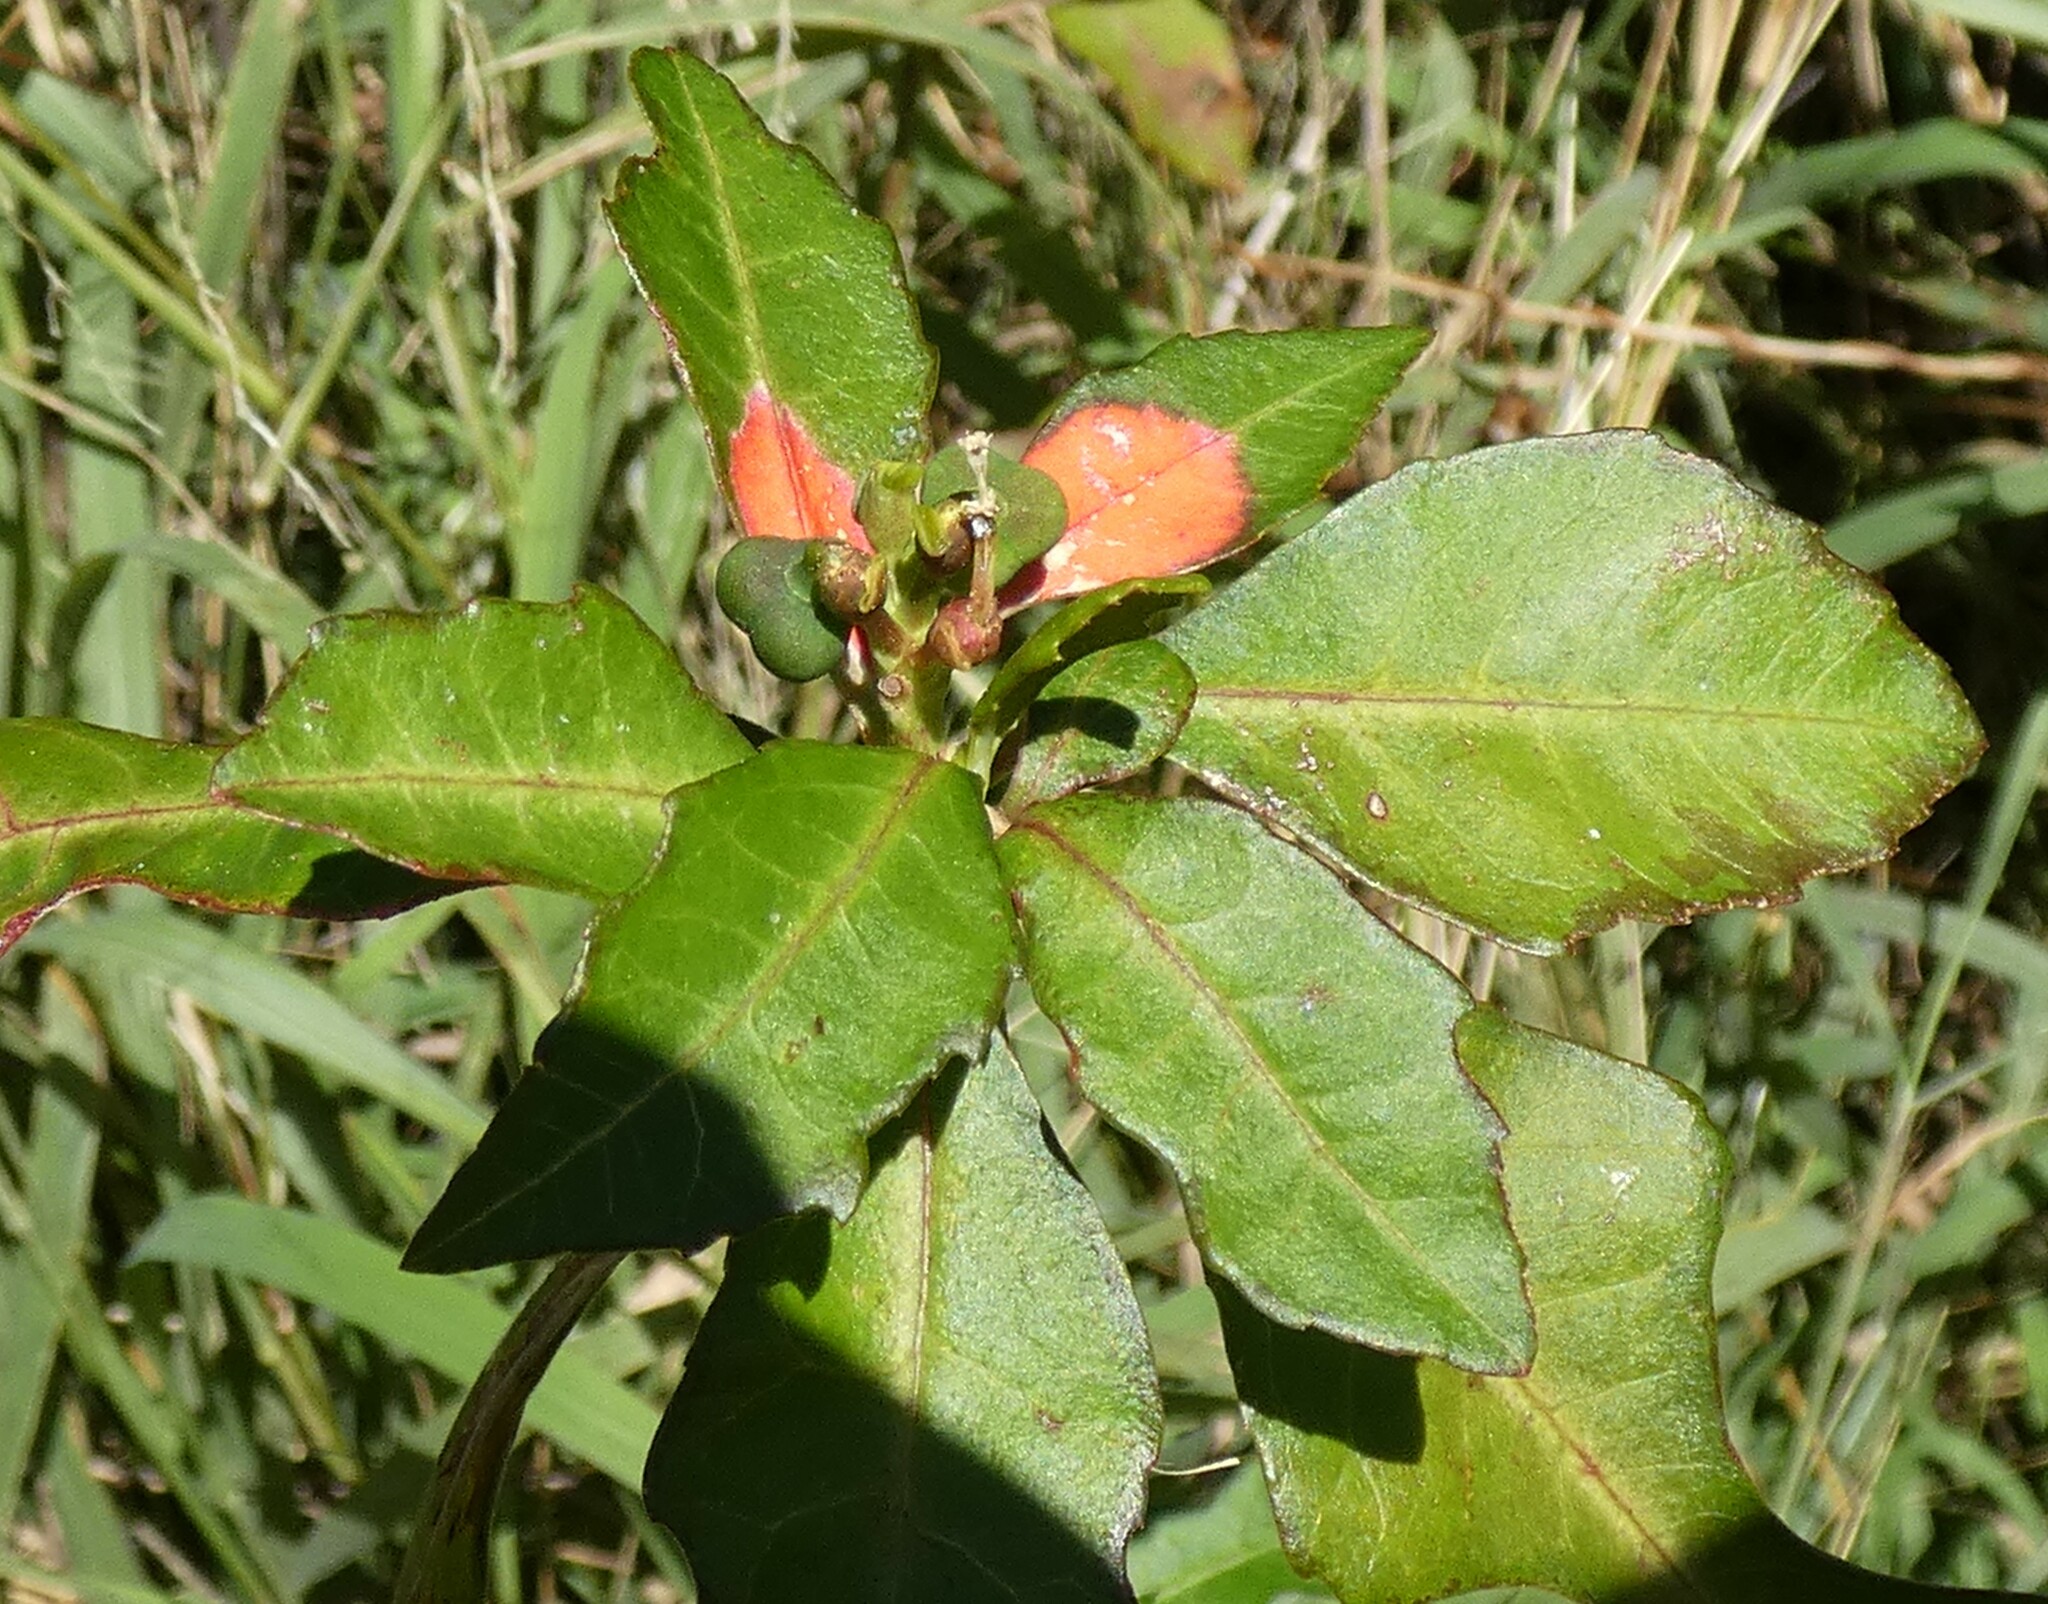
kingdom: Plantae
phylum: Tracheophyta
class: Magnoliopsida
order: Malpighiales
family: Euphorbiaceae
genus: Euphorbia
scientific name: Euphorbia heterophylla
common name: Mexican fireplant
